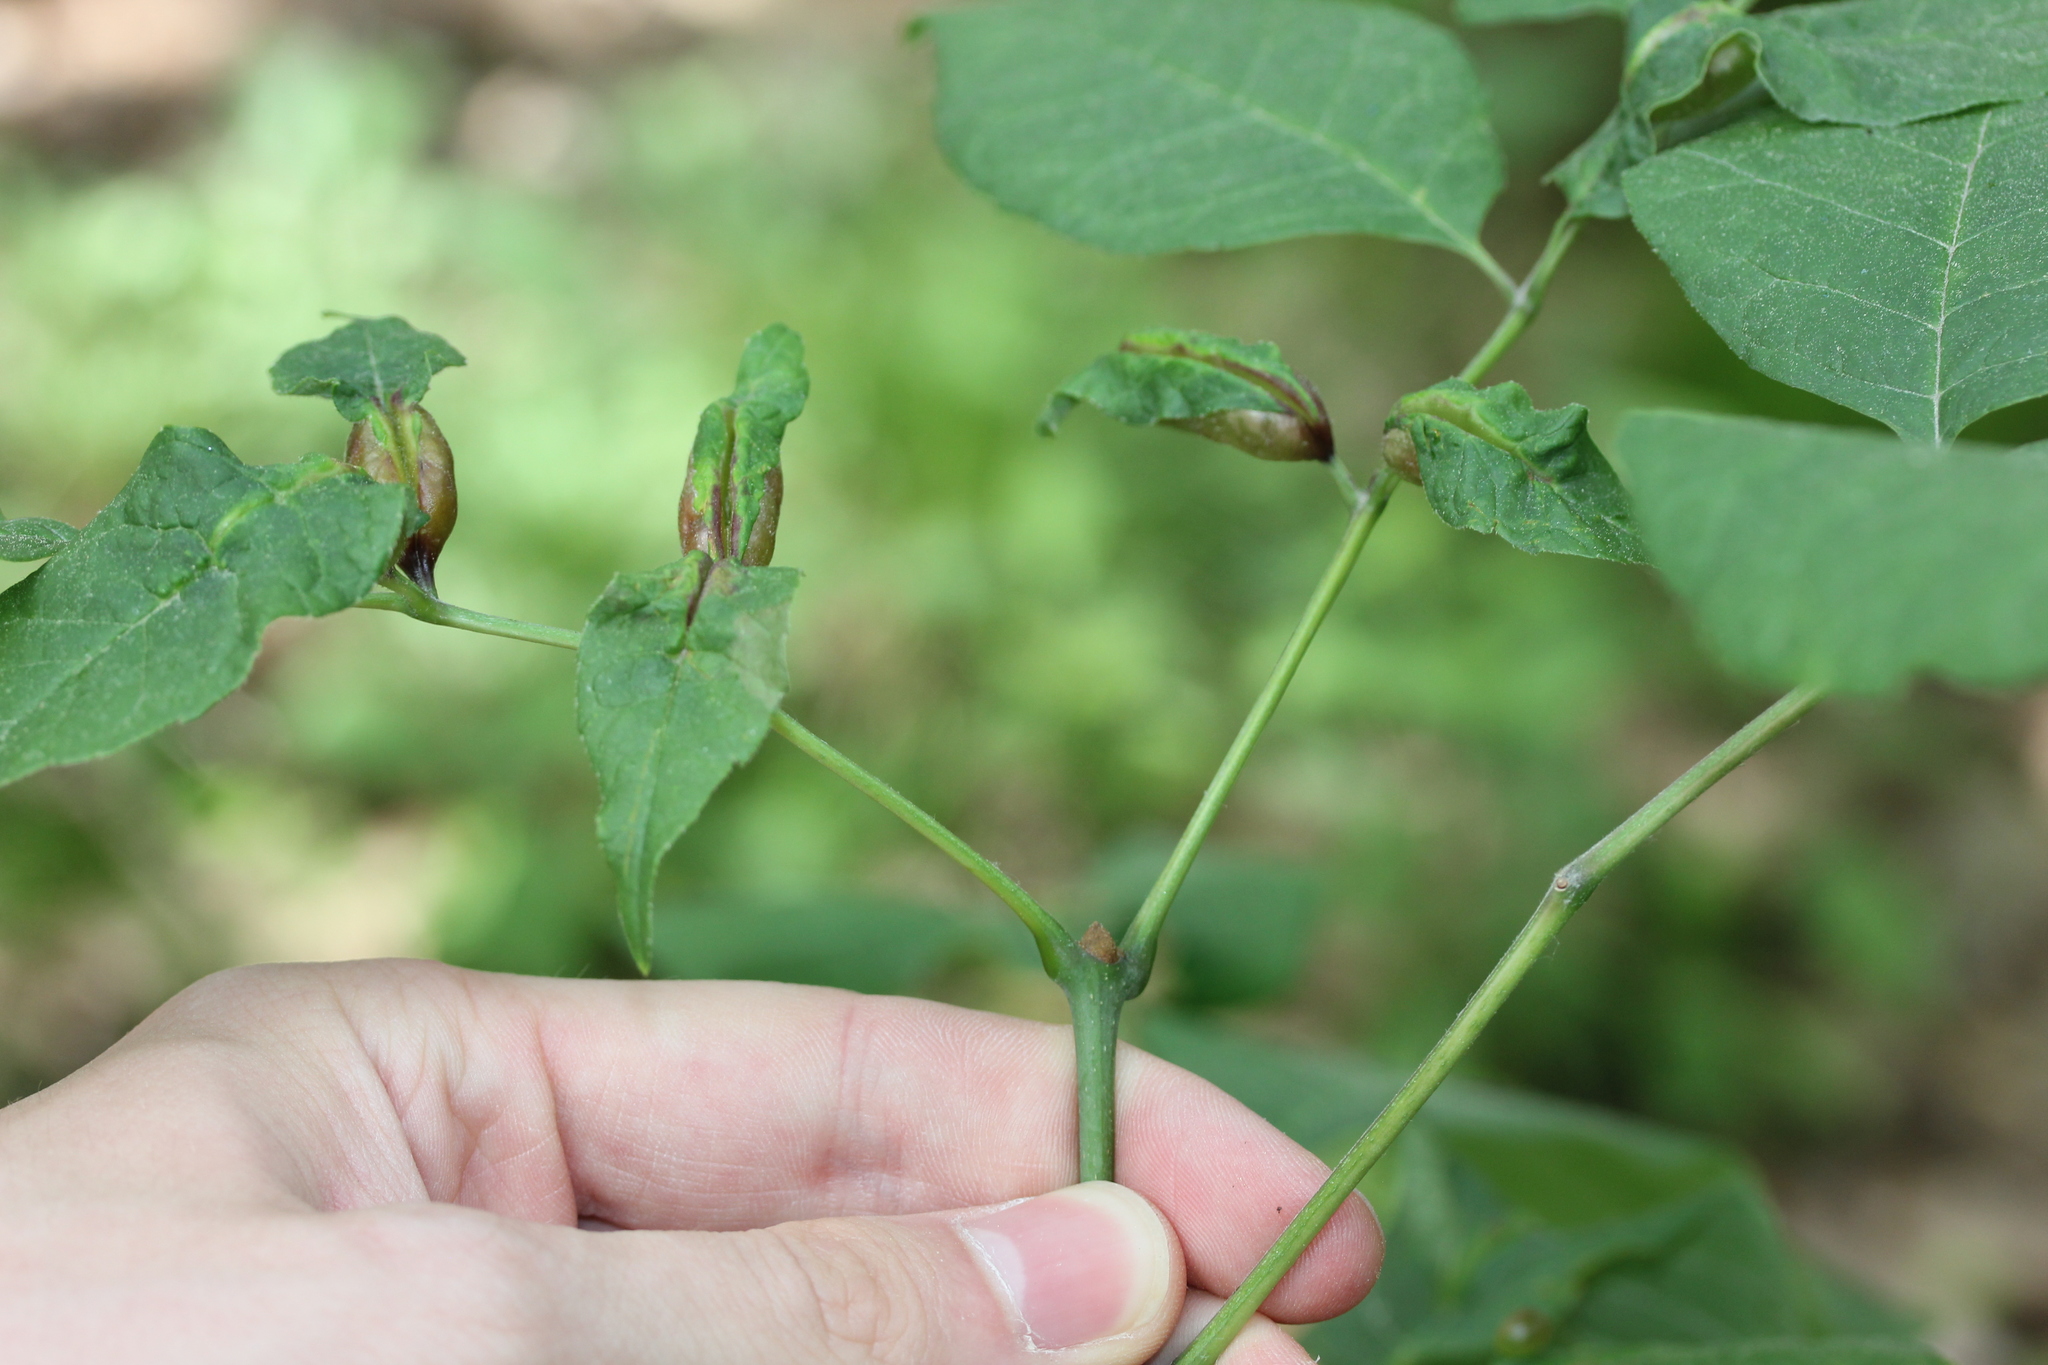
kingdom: Animalia
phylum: Arthropoda
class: Insecta
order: Diptera
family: Cecidomyiidae
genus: Dasineura
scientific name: Dasineura tumidosae
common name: Ash petiole gall midge
